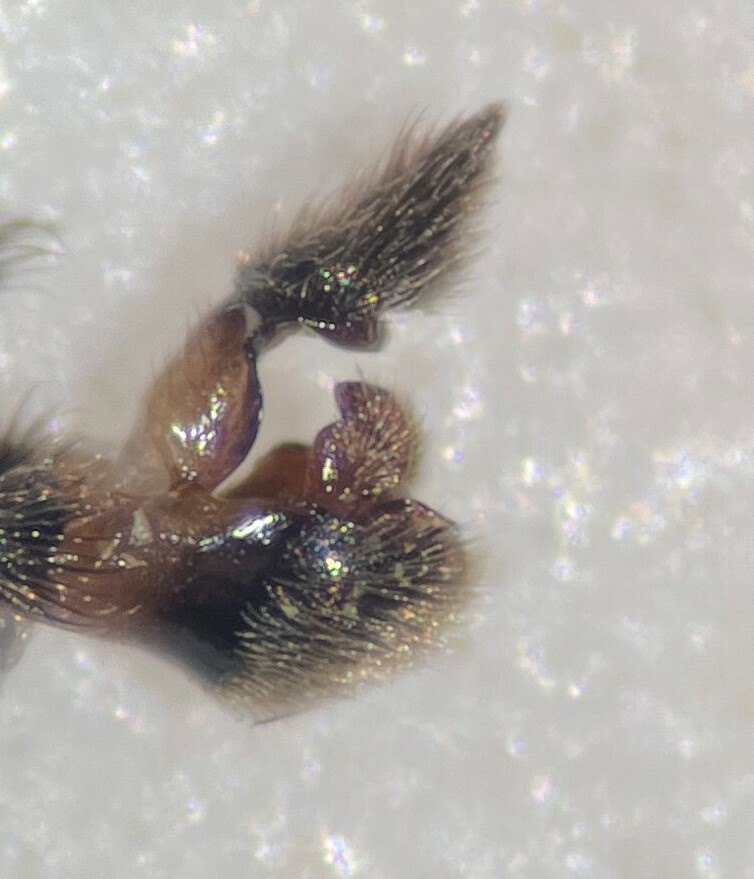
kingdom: Animalia
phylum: Arthropoda
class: Insecta
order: Hemiptera
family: Veliidae
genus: Rhagovelia
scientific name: Rhagovelia becki
